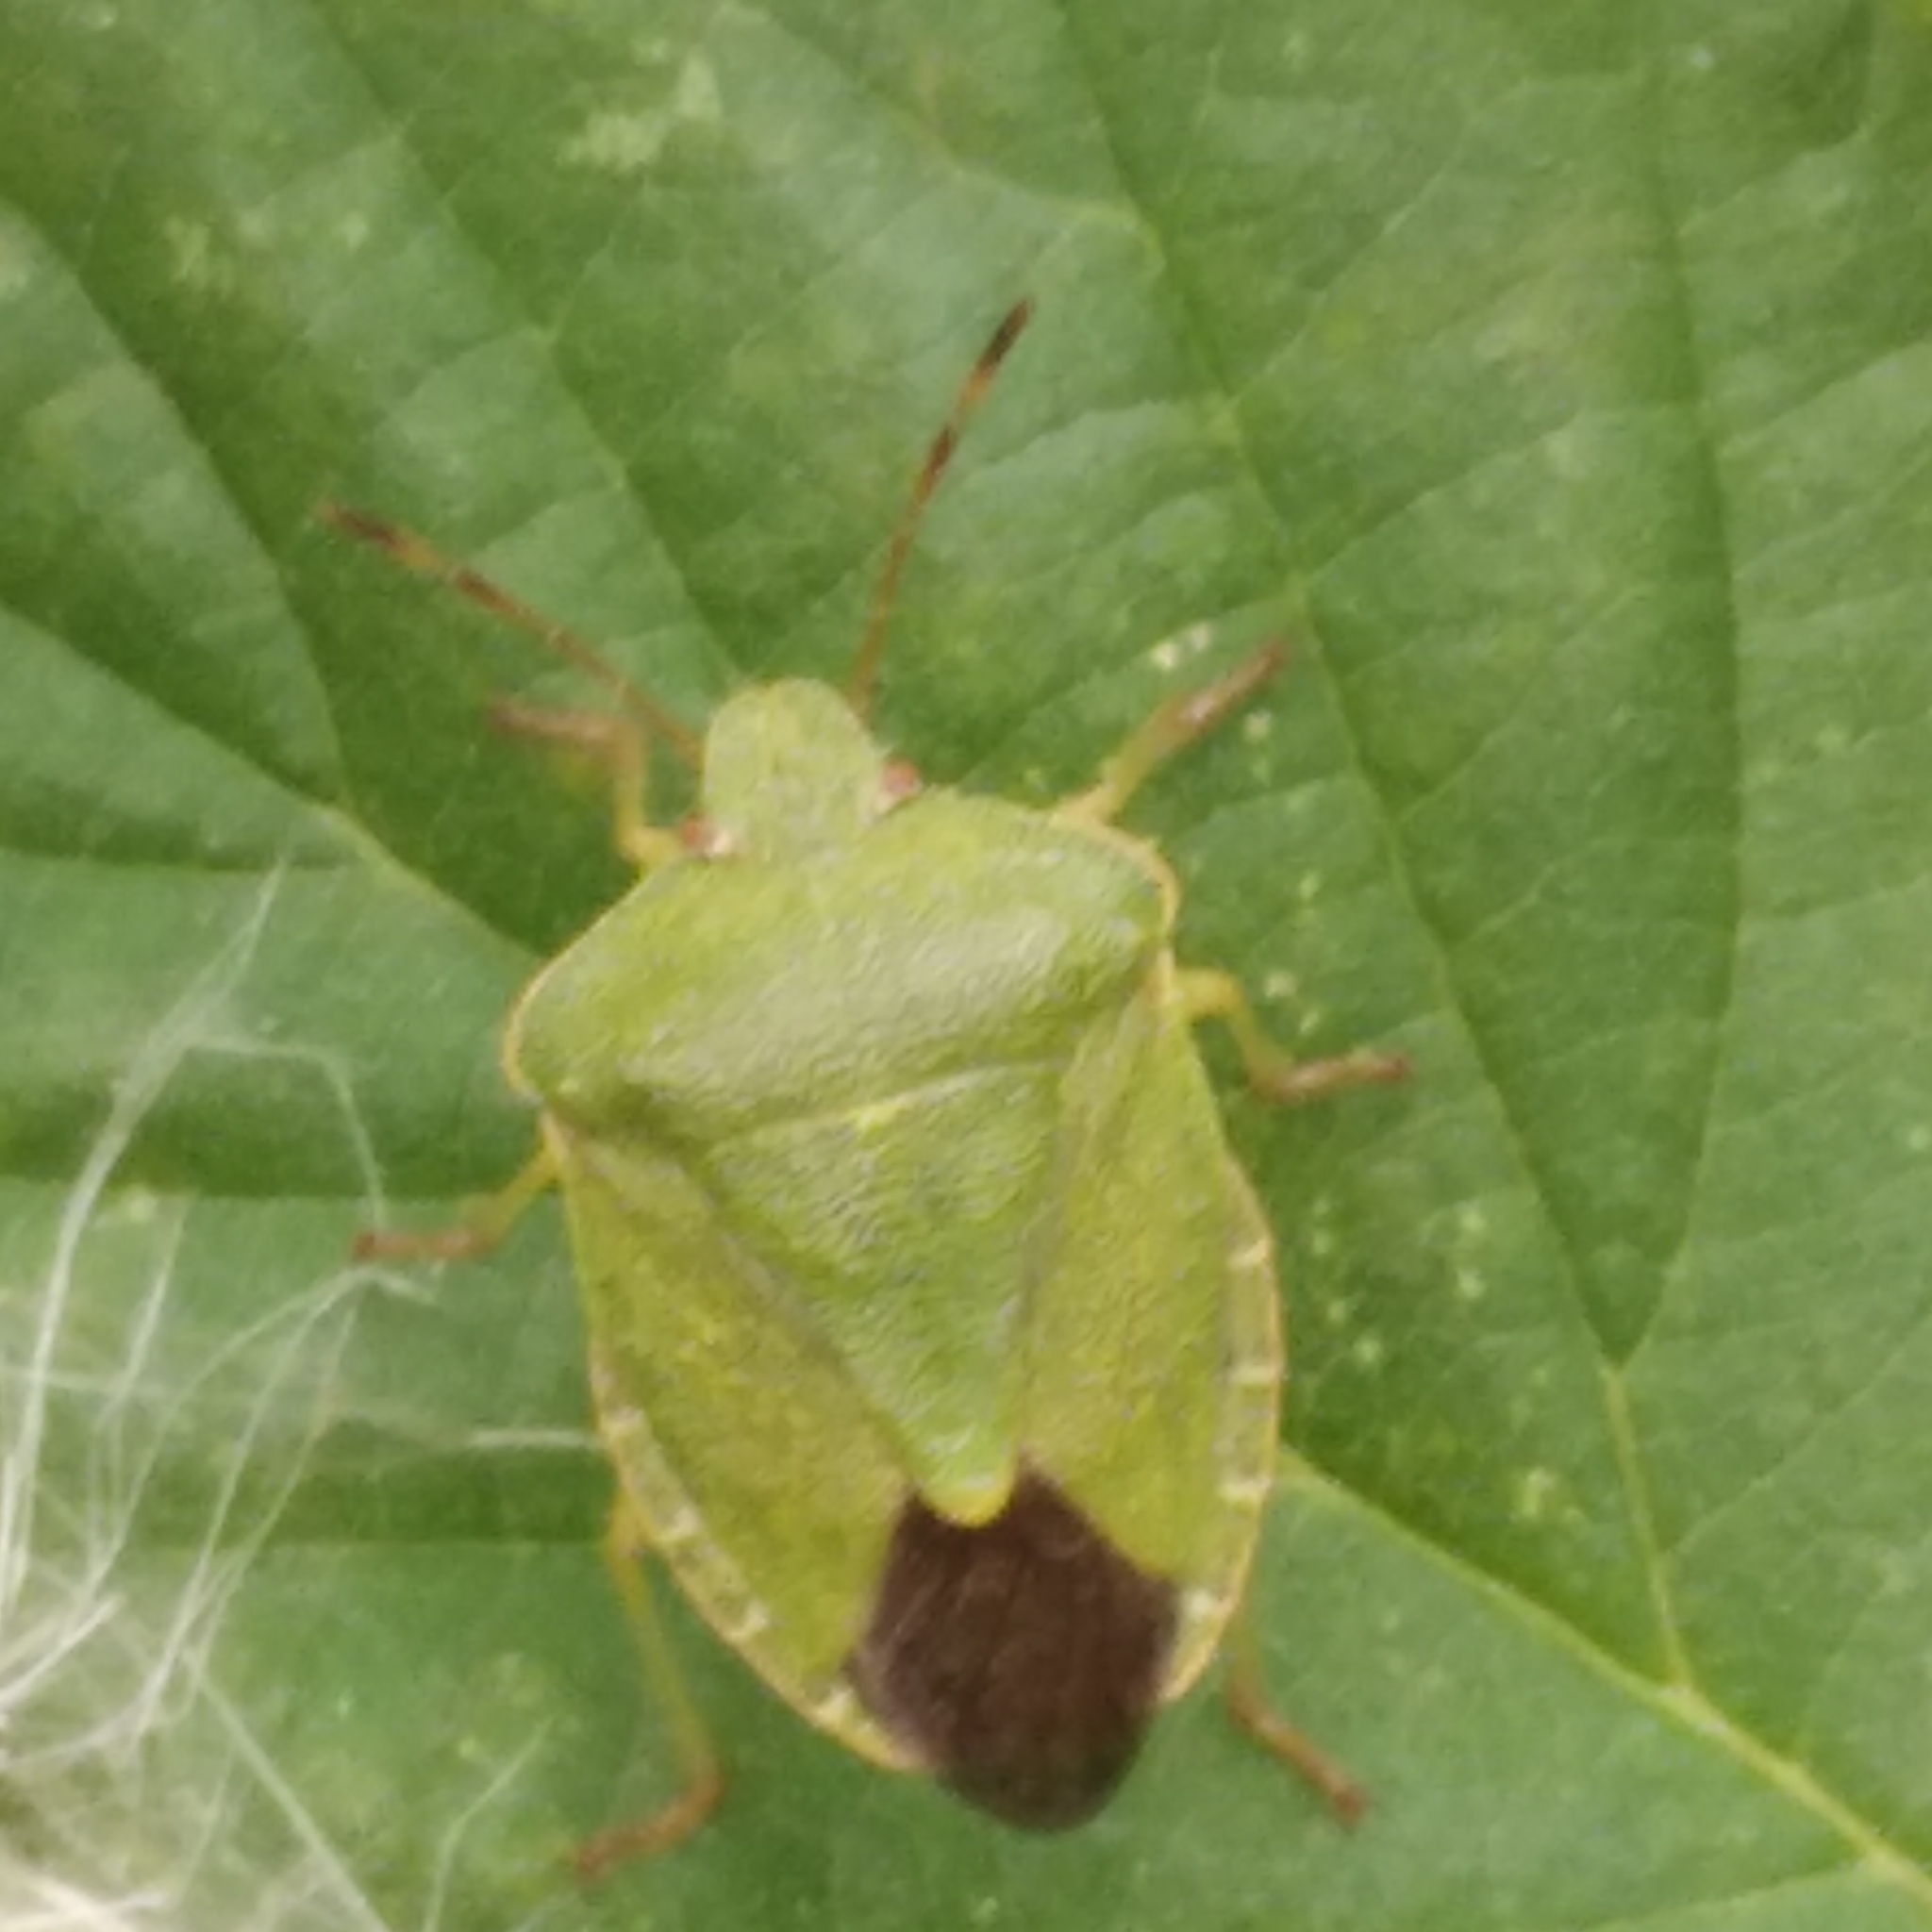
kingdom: Animalia
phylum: Arthropoda
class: Insecta
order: Hemiptera
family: Pentatomidae
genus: Palomena
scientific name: Palomena prasina
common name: Green shieldbug
